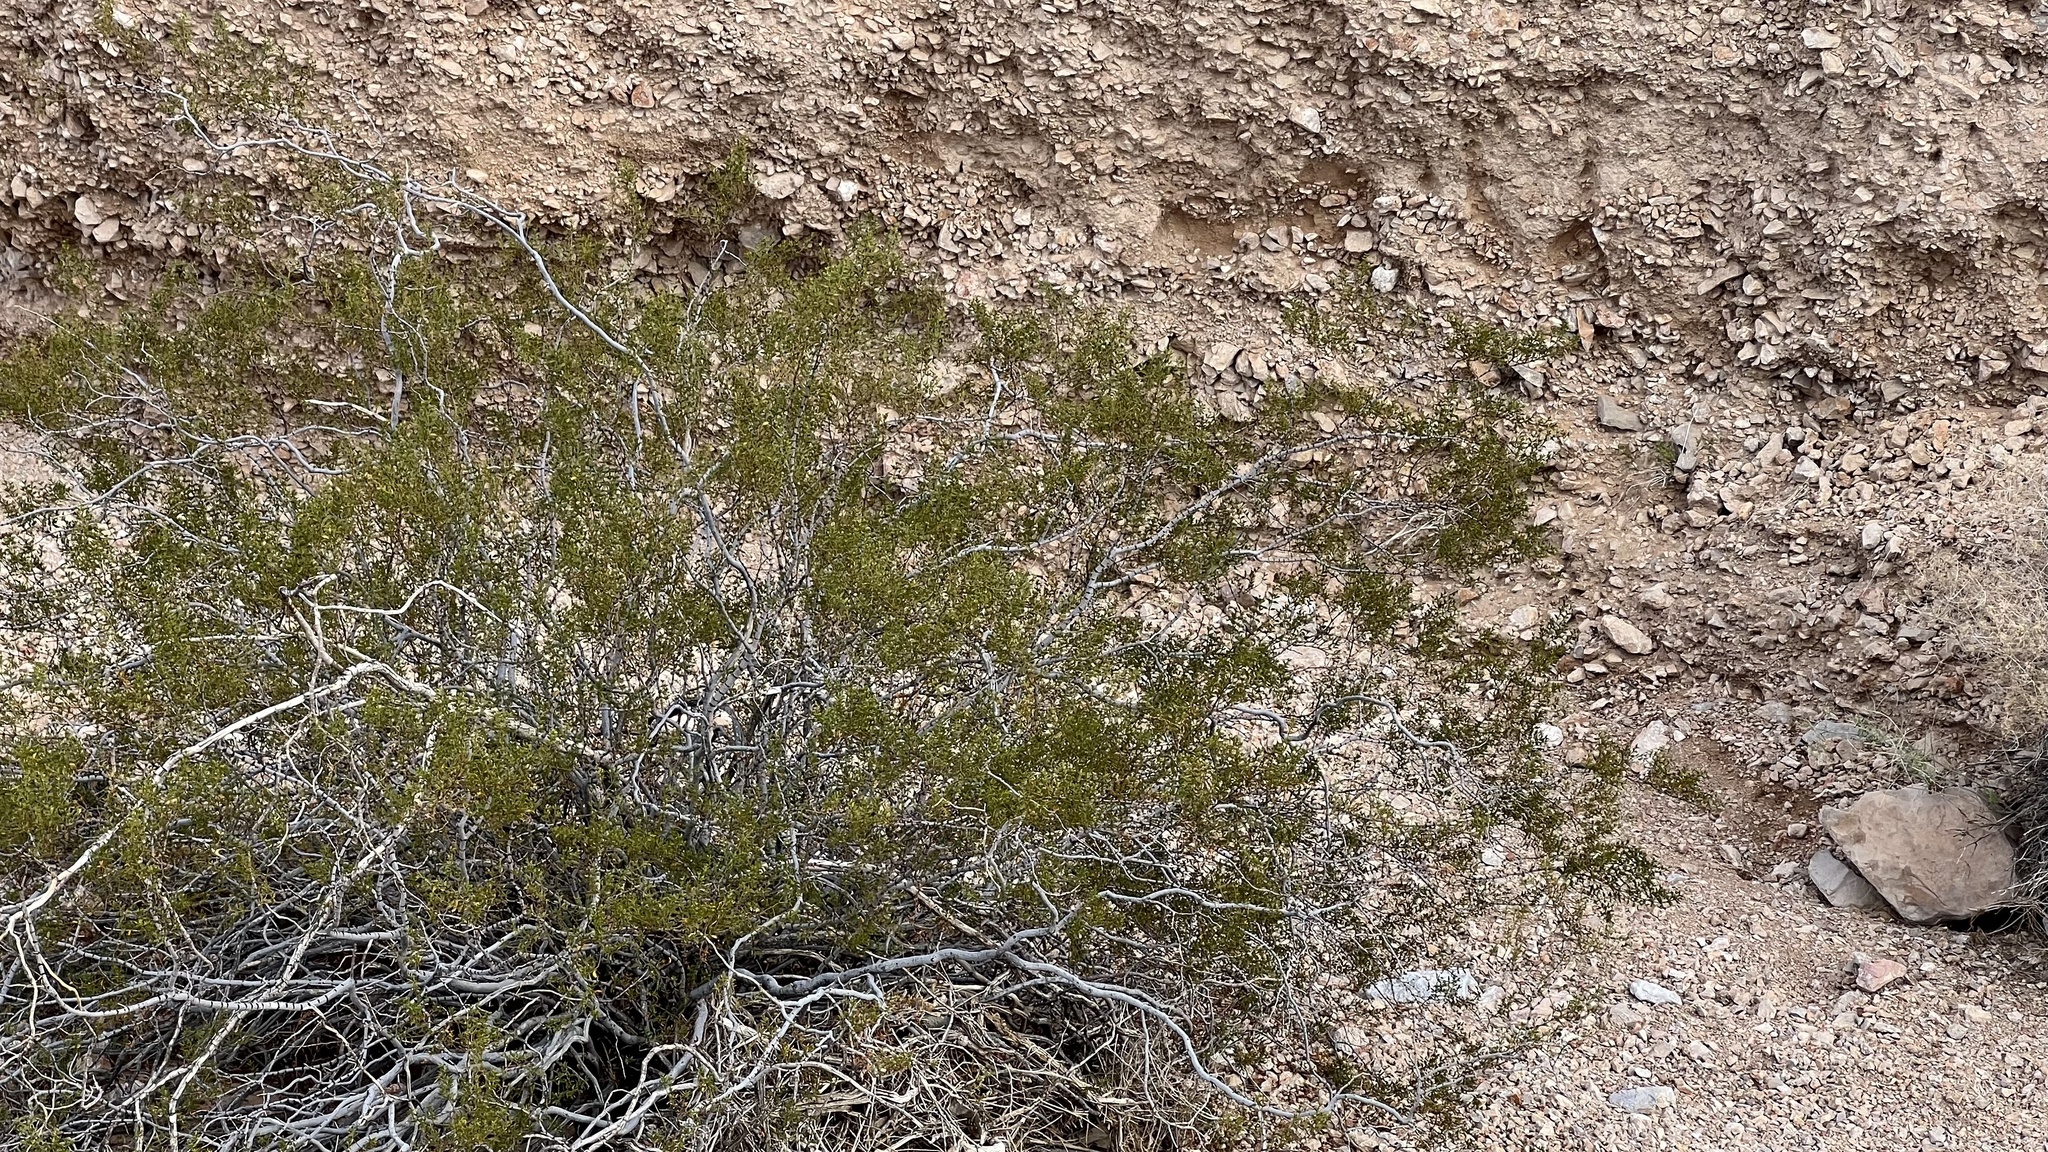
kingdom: Plantae
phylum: Tracheophyta
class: Magnoliopsida
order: Zygophyllales
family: Zygophyllaceae
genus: Larrea
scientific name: Larrea tridentata
